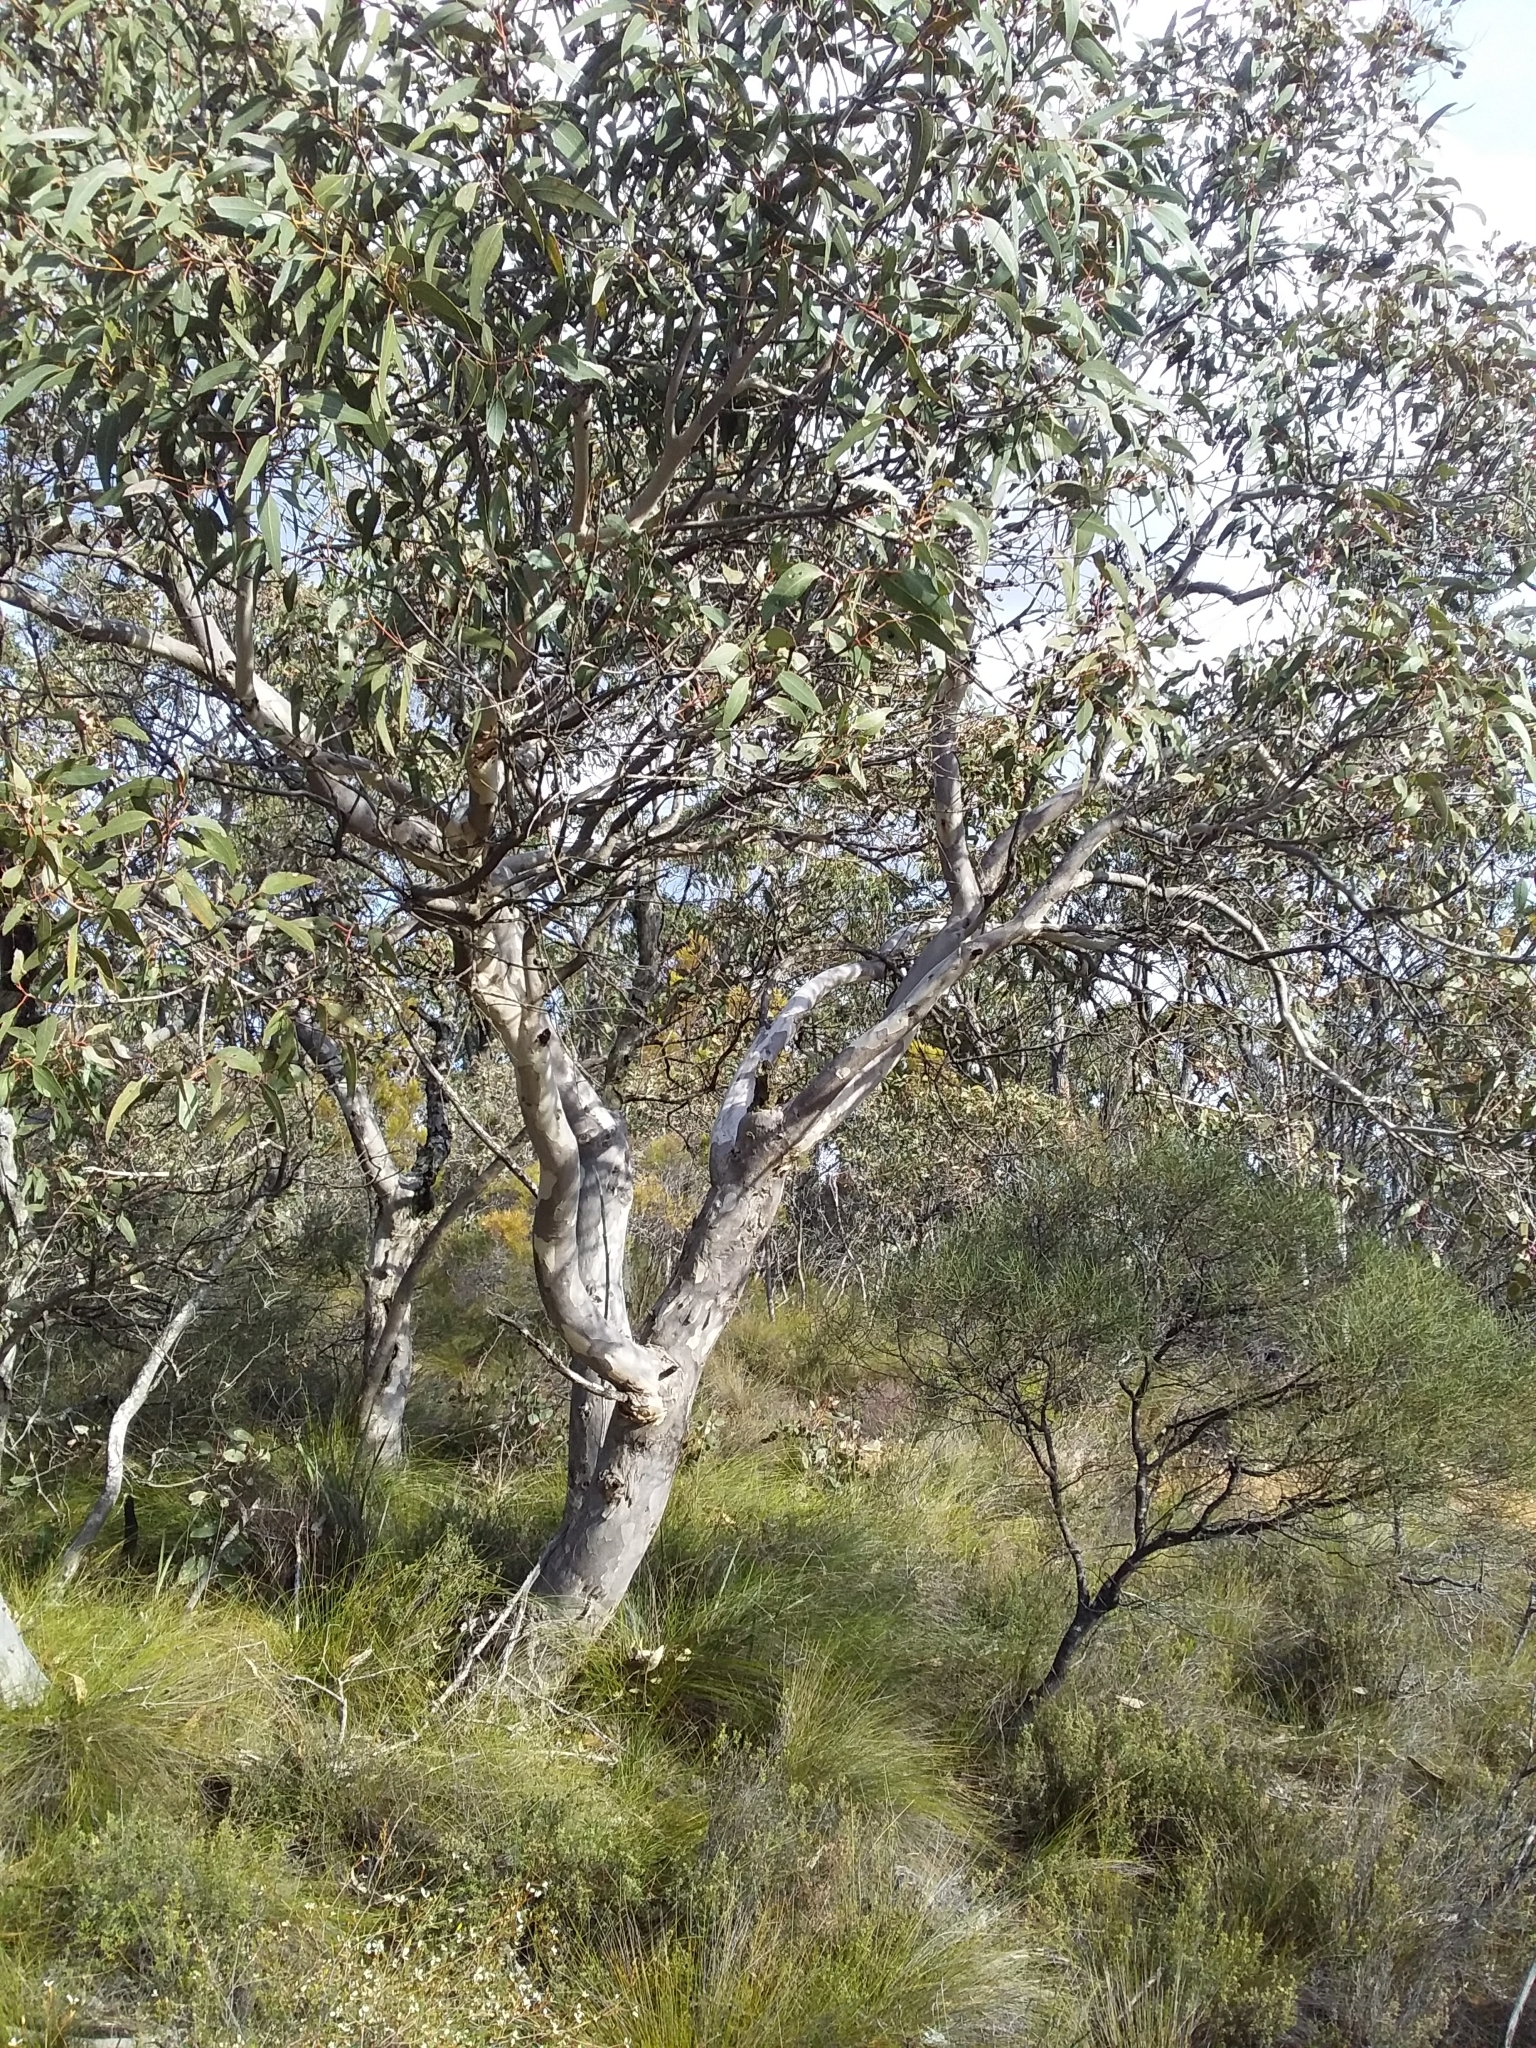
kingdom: Plantae
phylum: Tracheophyta
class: Magnoliopsida
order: Myrtales
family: Myrtaceae
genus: Eucalyptus
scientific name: Eucalyptus cosmophylla
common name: Bog-gum
